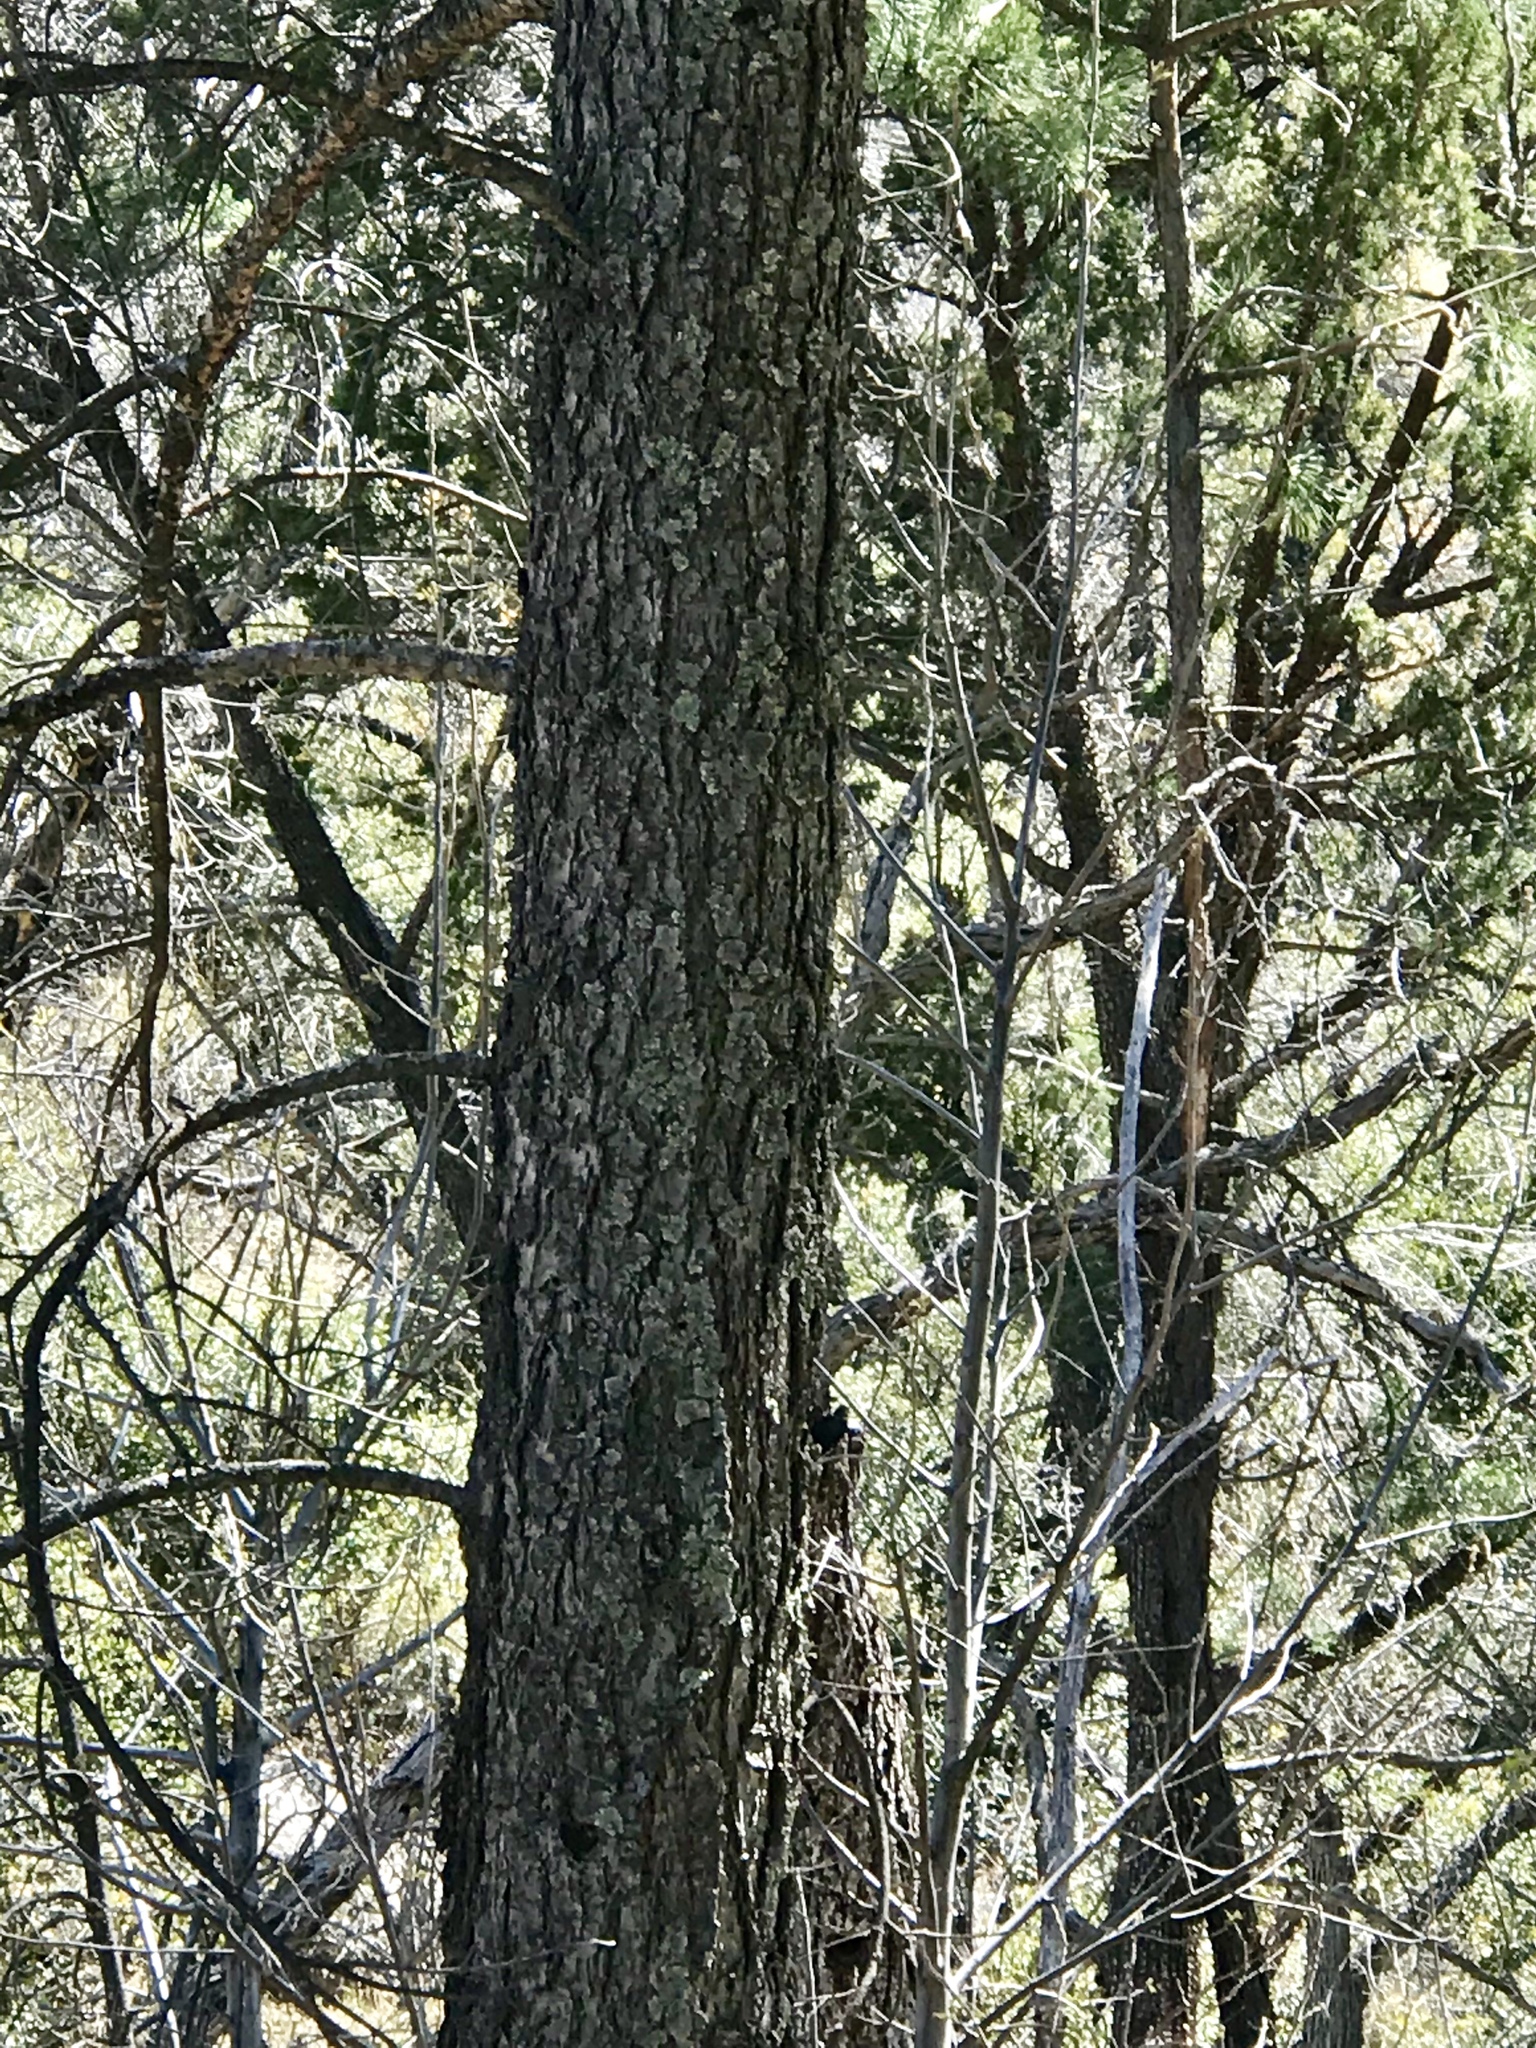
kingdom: Plantae
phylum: Tracheophyta
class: Pinopsida
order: Pinales
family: Pinaceae
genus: Pseudotsuga
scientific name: Pseudotsuga menziesii
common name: Douglas fir
